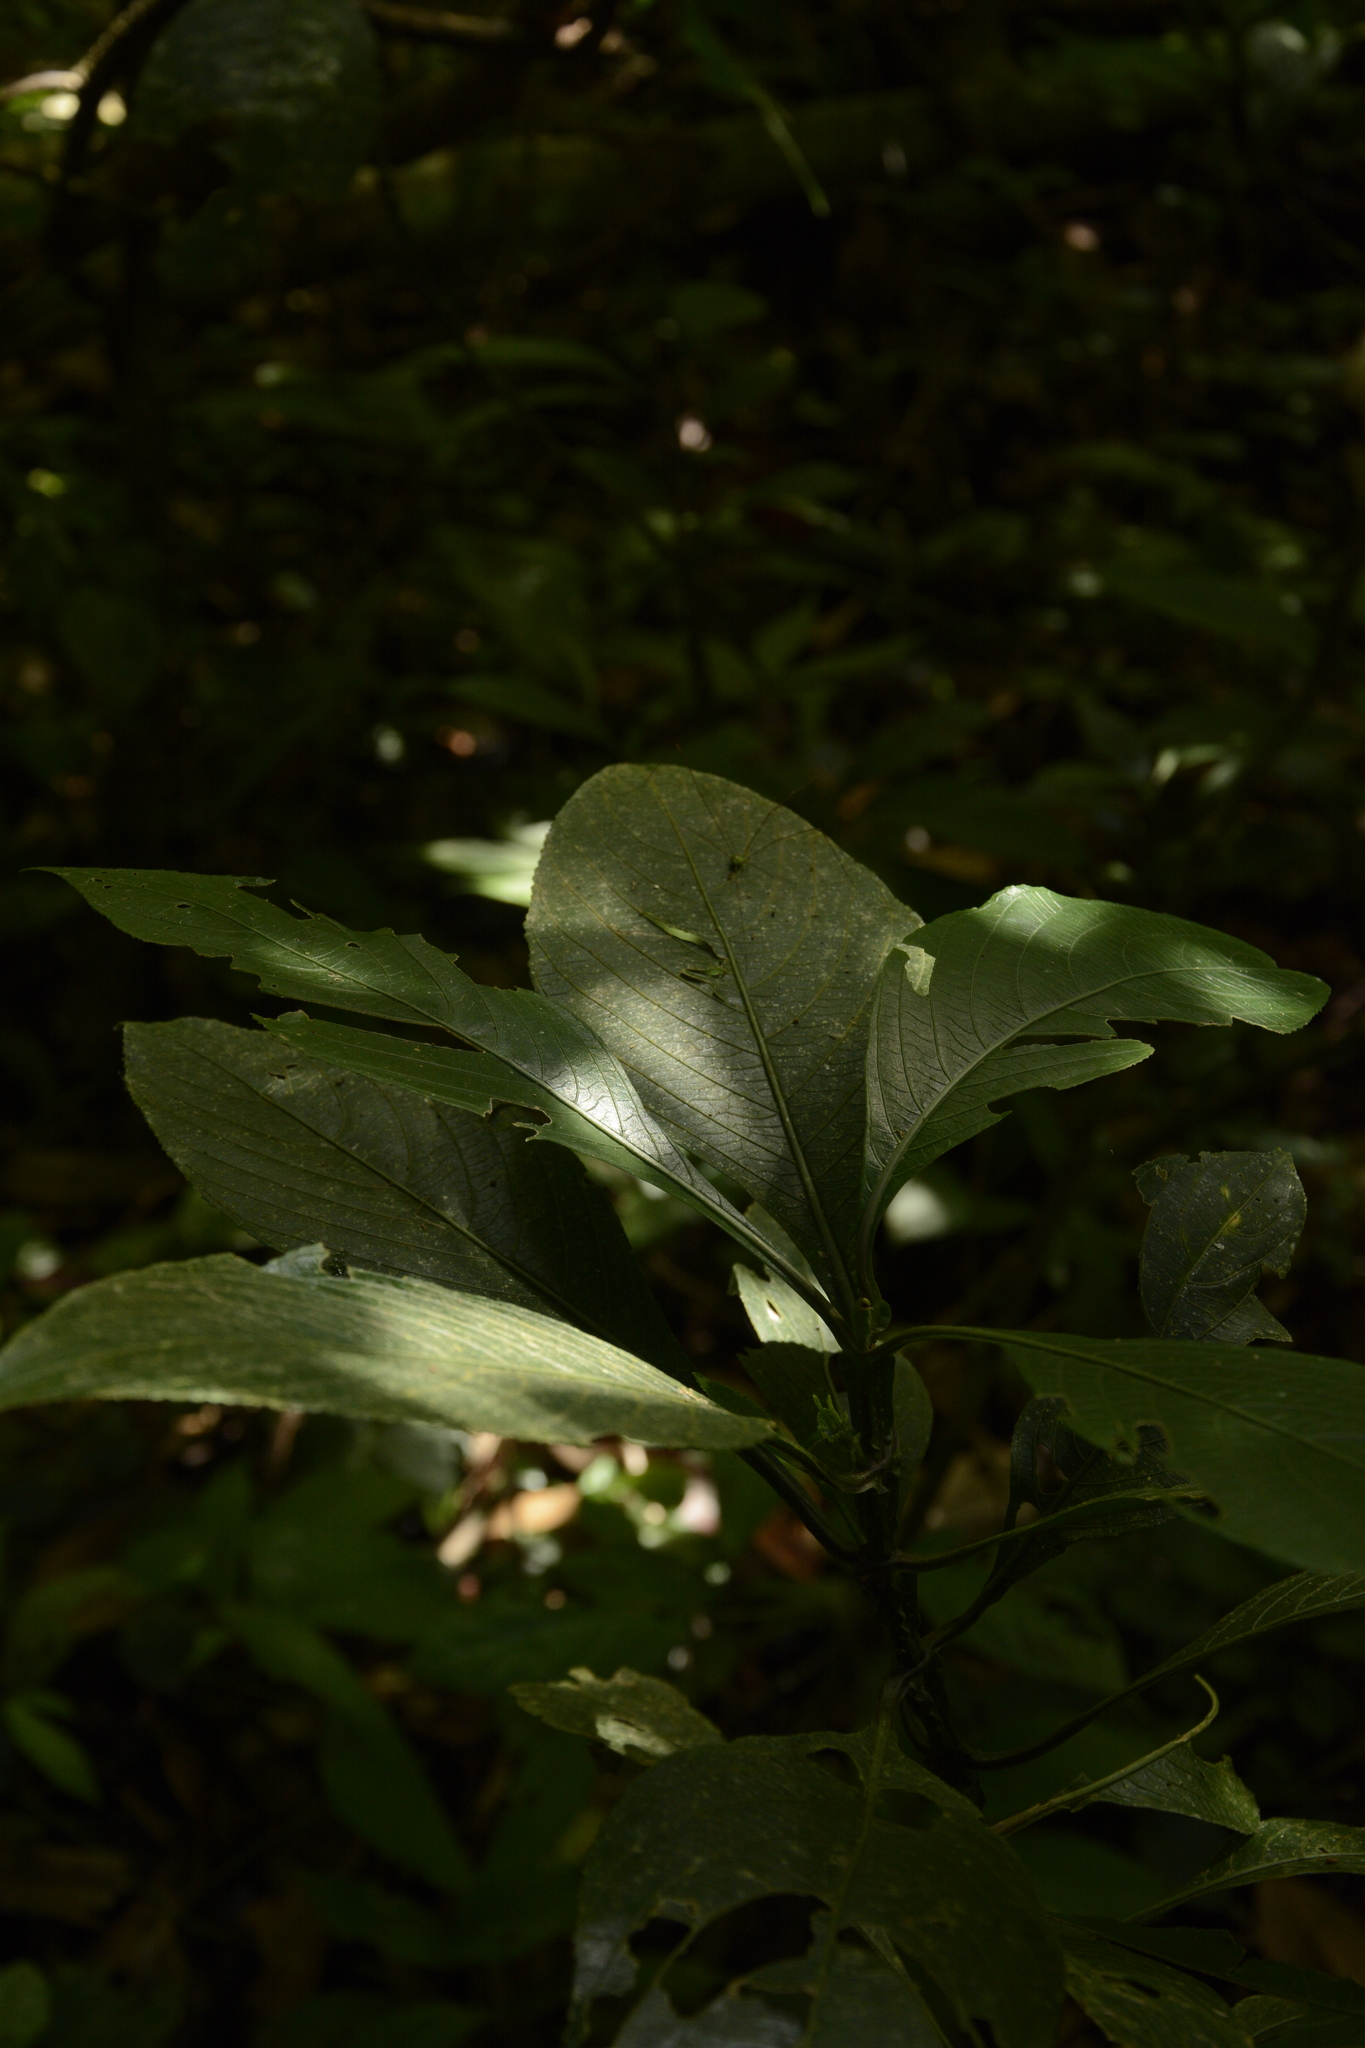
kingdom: Plantae
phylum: Tracheophyta
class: Magnoliopsida
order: Lamiales
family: Acanthaceae
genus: Strobilanthes
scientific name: Strobilanthes barbata
